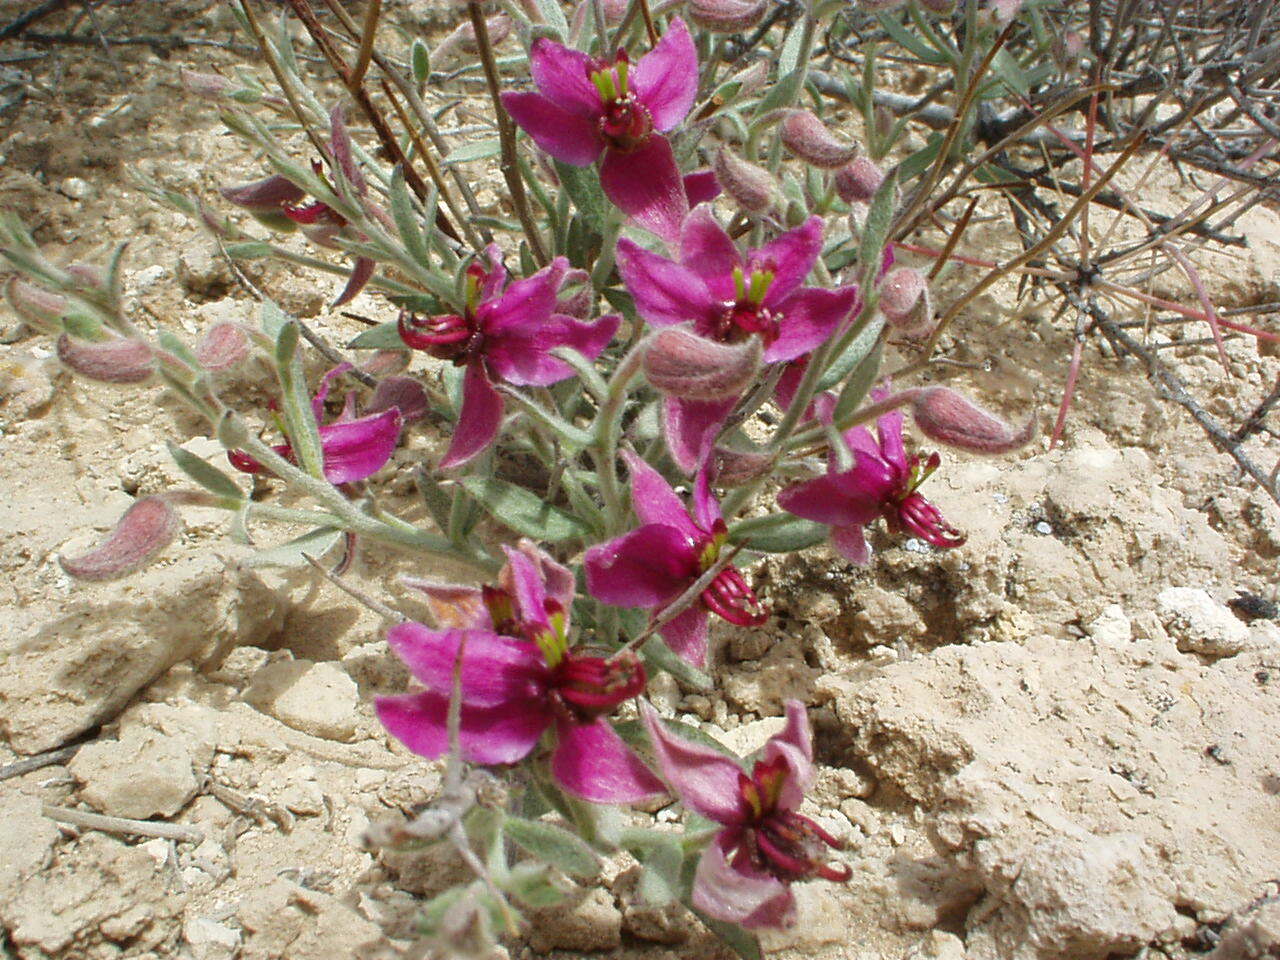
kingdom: Plantae
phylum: Tracheophyta
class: Magnoliopsida
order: Zygophyllales
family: Krameriaceae
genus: Krameria
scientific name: Krameria erecta
